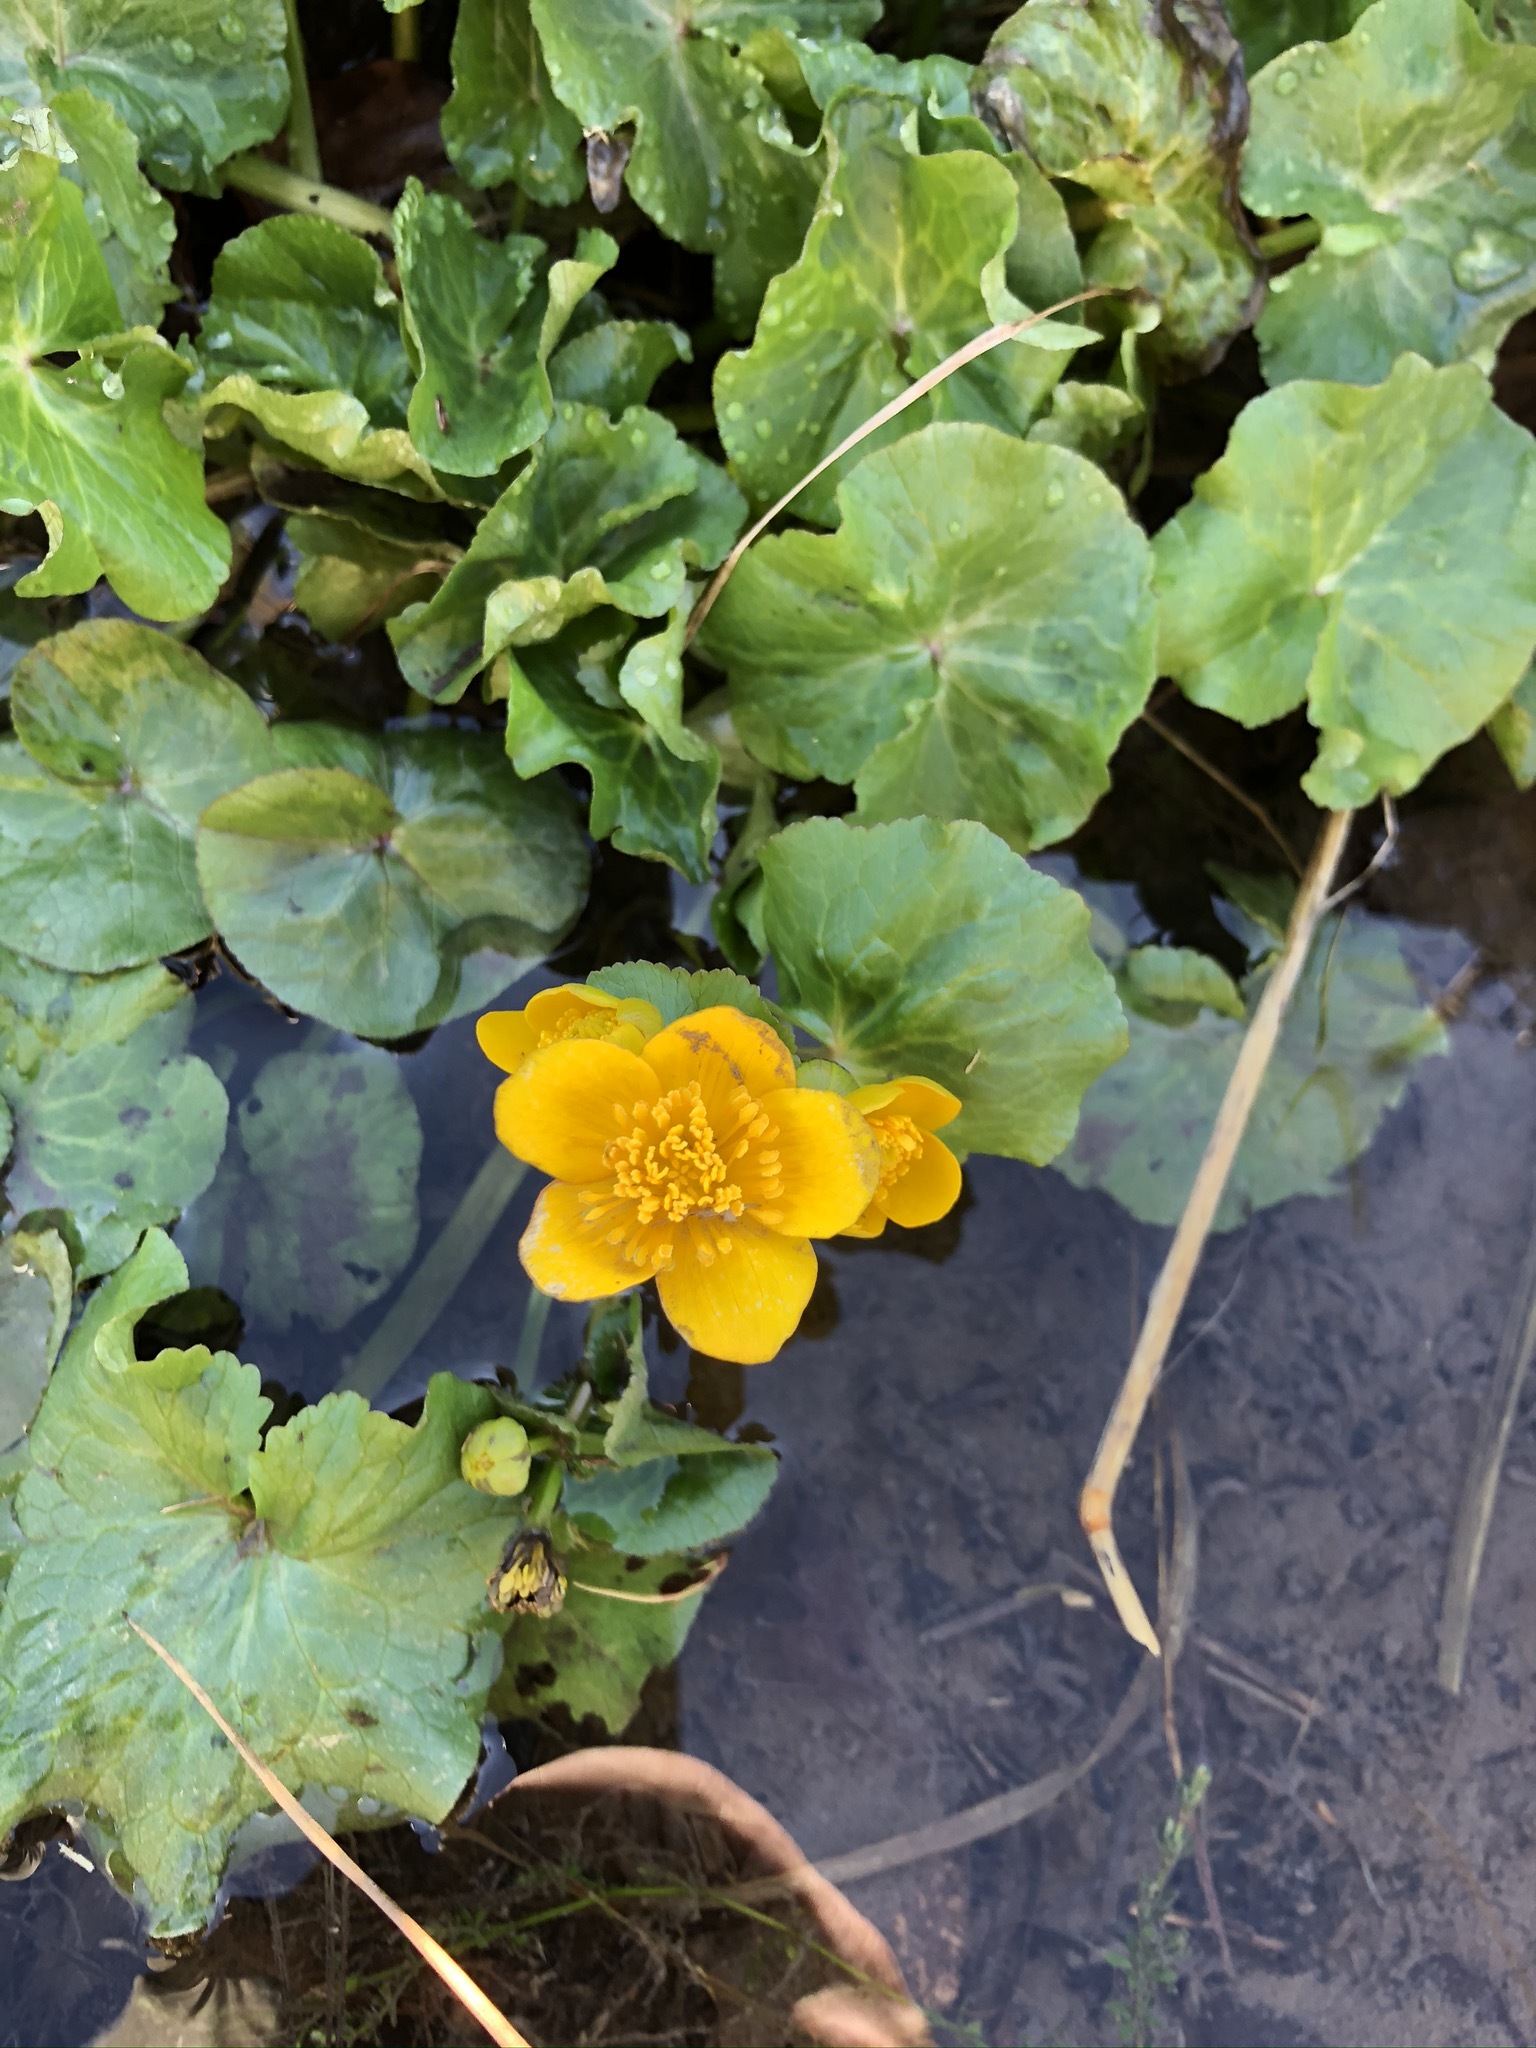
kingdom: Plantae
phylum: Tracheophyta
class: Magnoliopsida
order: Ranunculales
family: Ranunculaceae
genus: Caltha
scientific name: Caltha palustris
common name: Marsh marigold
